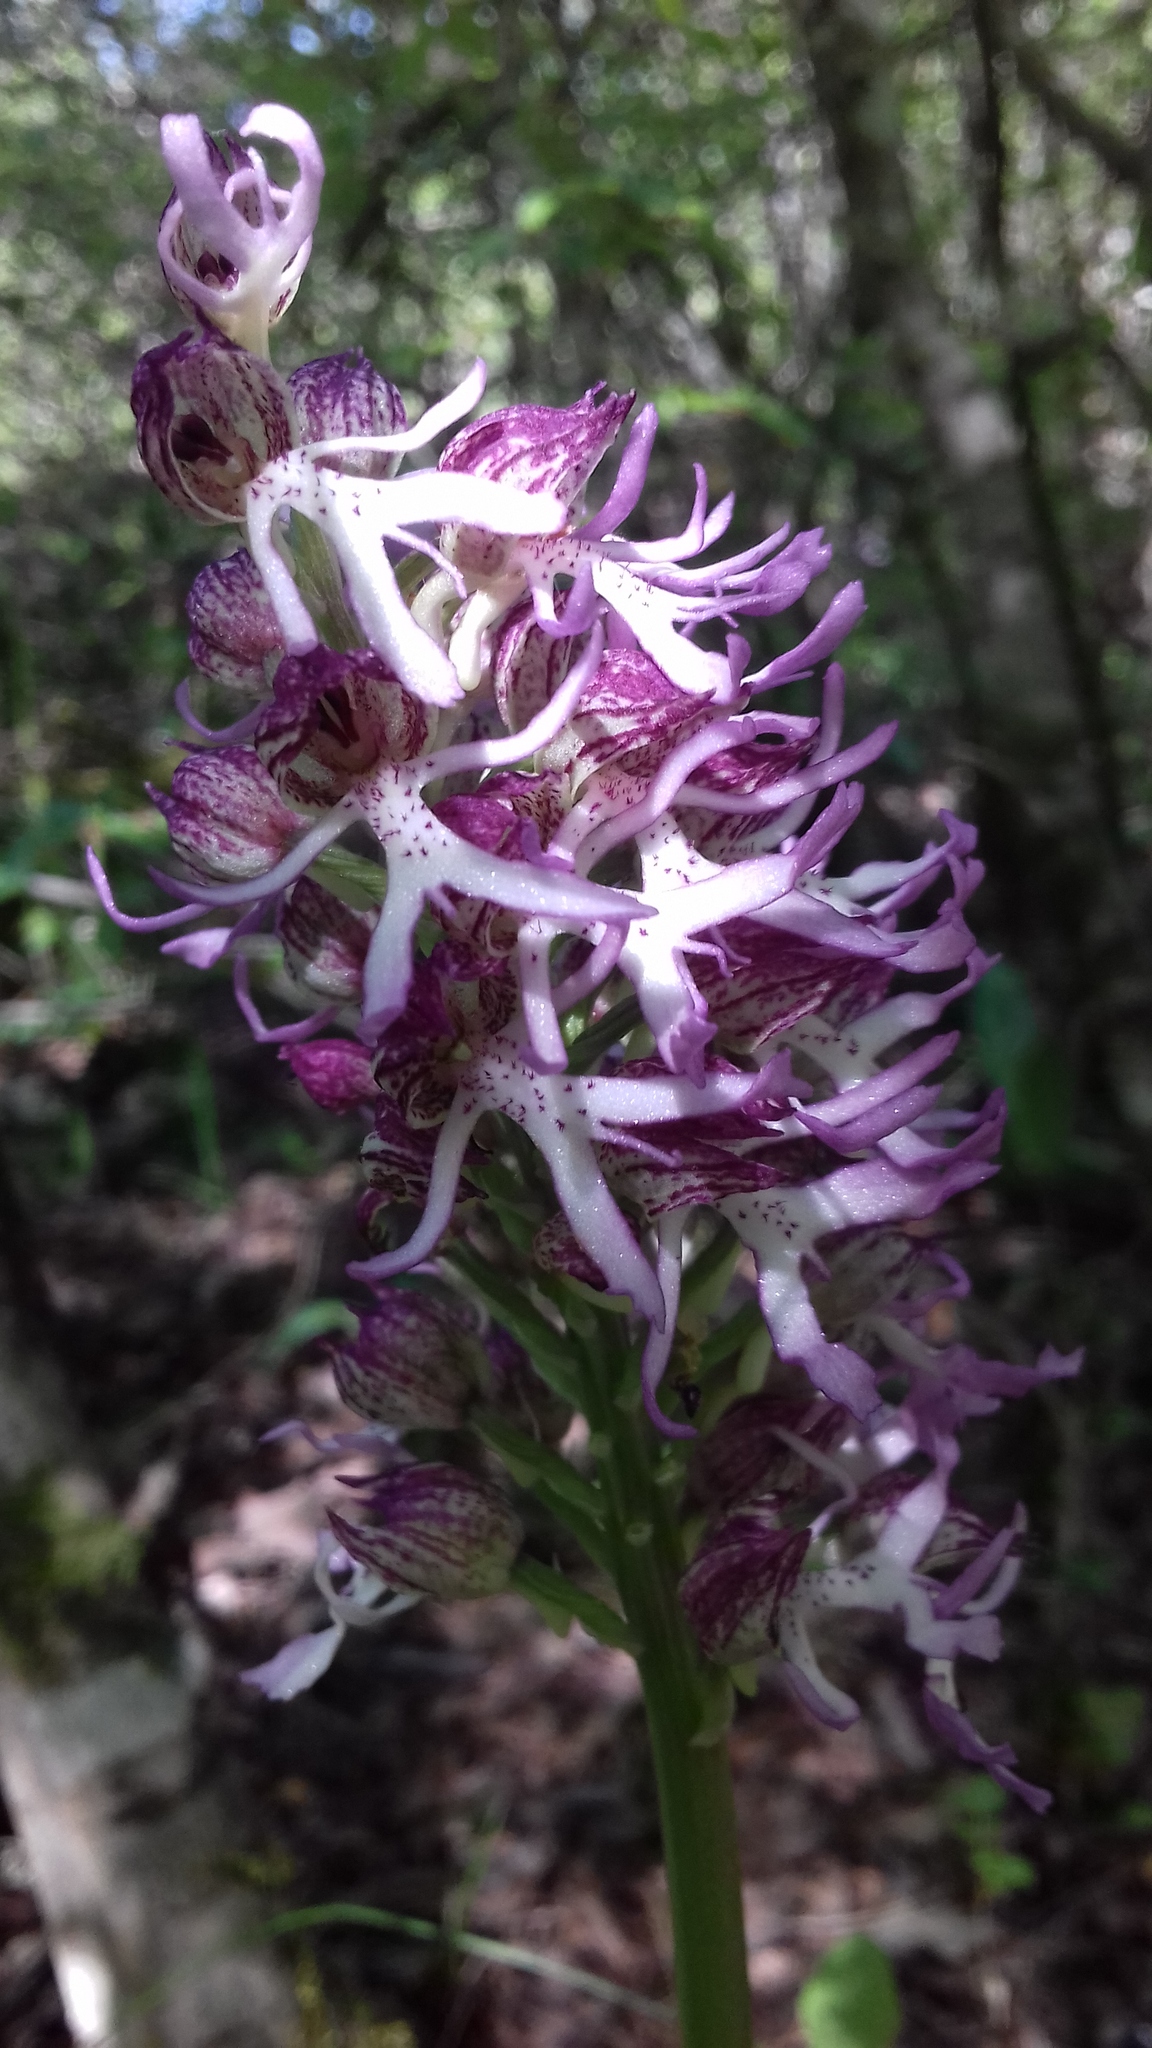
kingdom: Plantae
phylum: Tracheophyta
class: Liliopsida
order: Asparagales
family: Orchidaceae
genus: Orchis
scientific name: Orchis angusticruris
